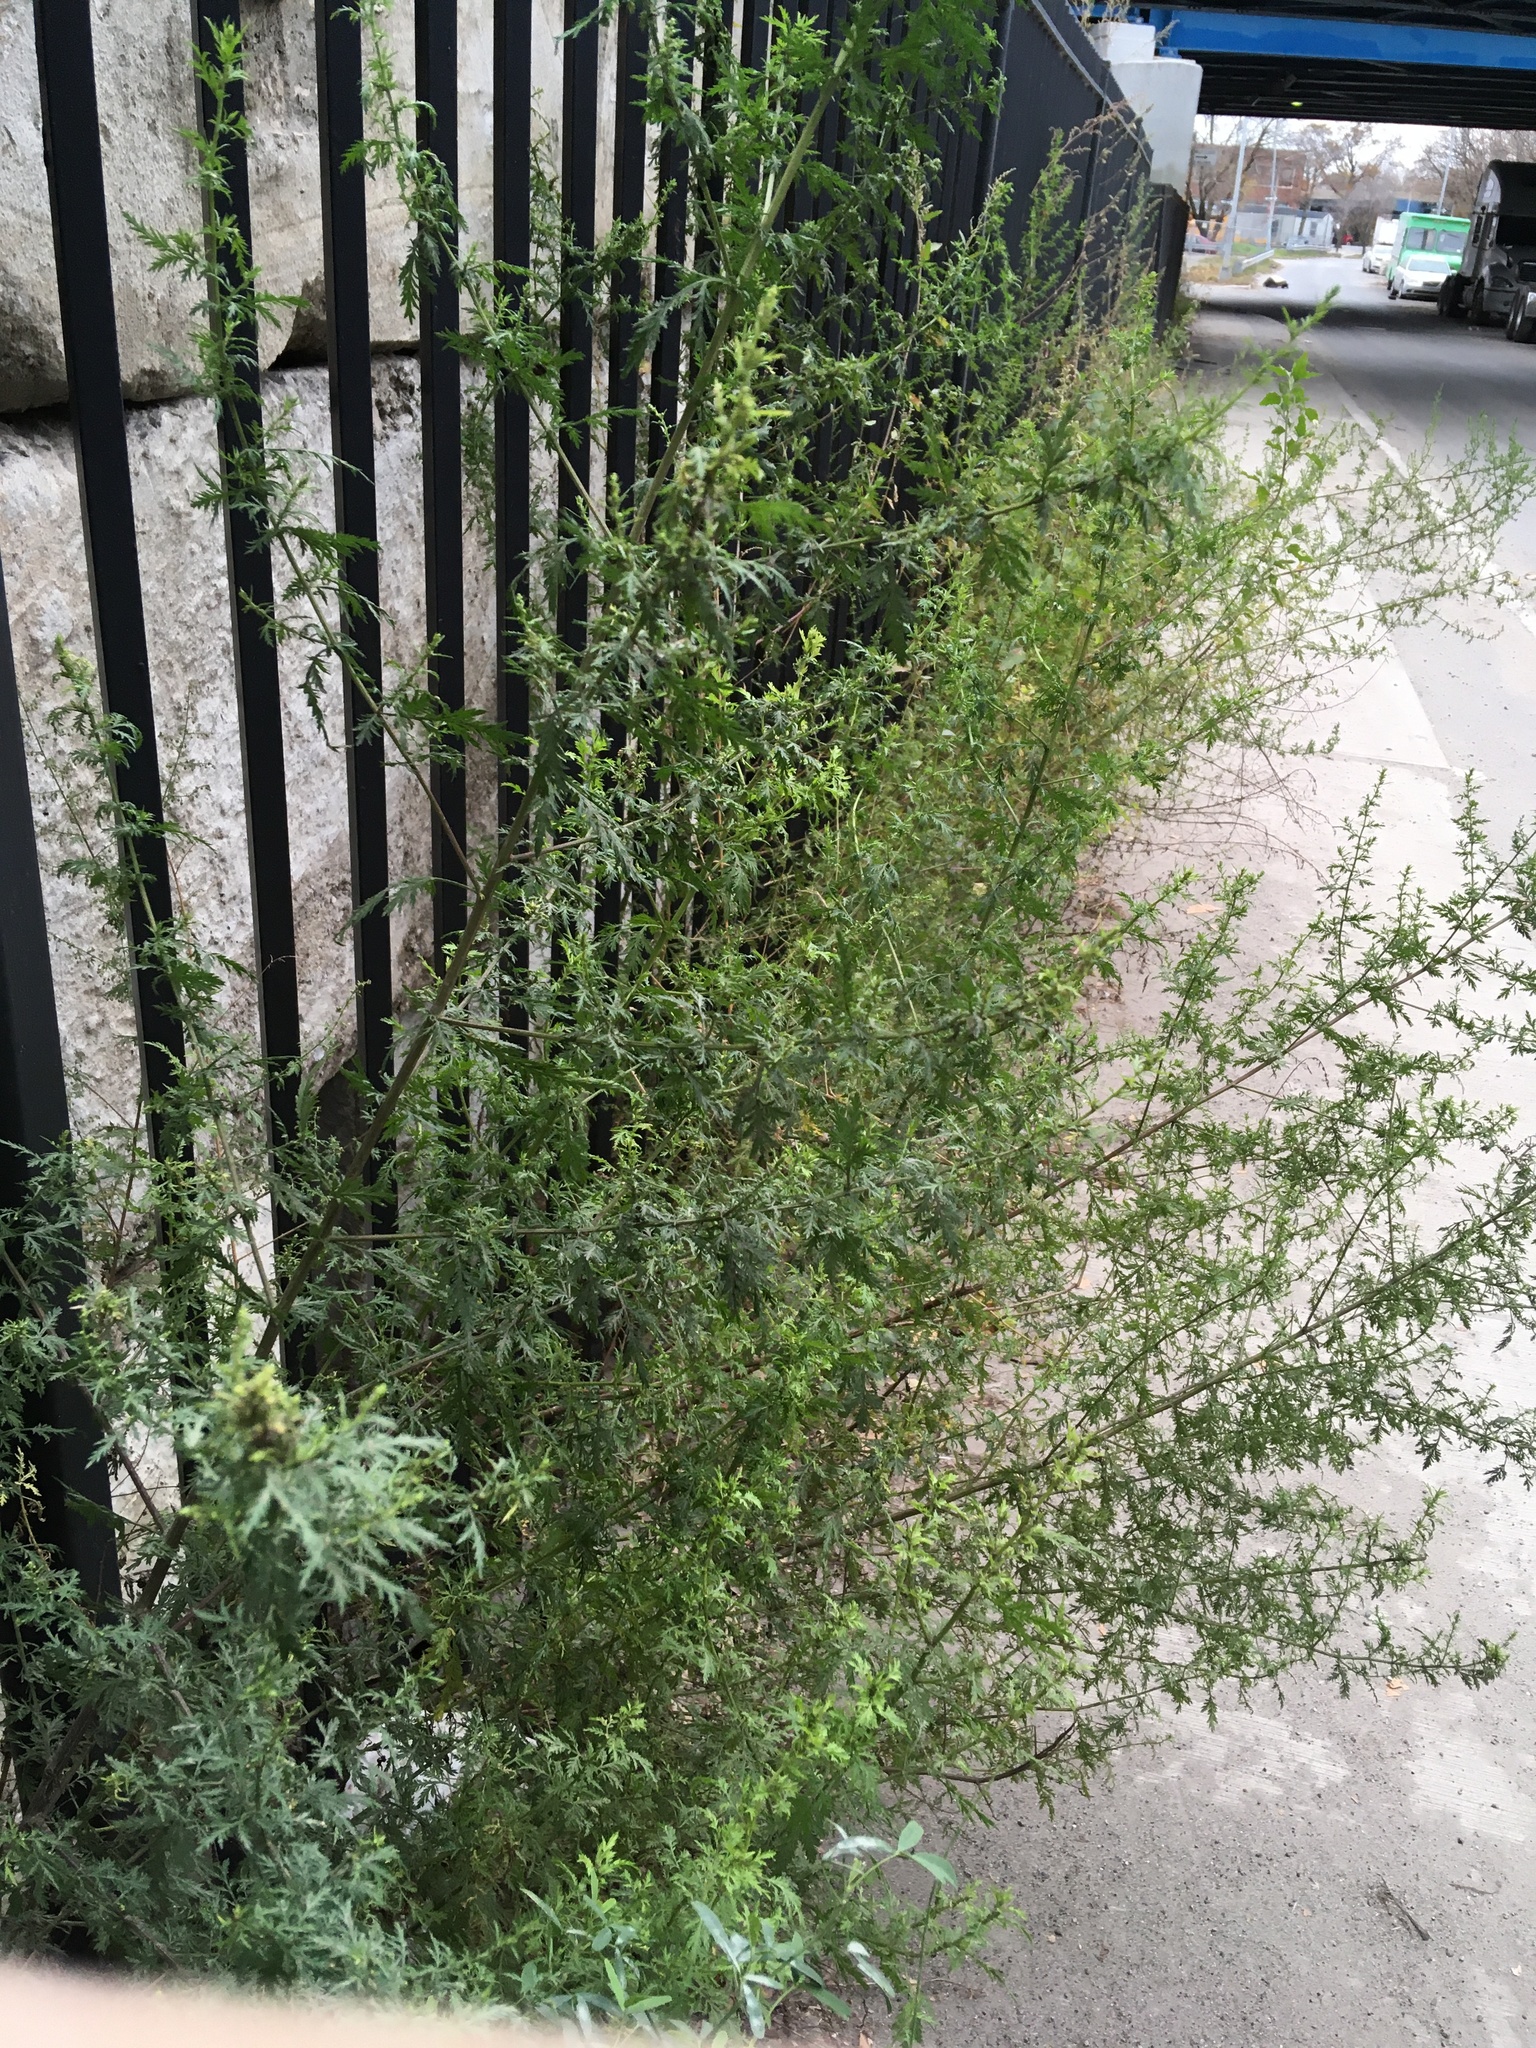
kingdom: Plantae
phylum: Tracheophyta
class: Magnoliopsida
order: Asterales
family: Asteraceae
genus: Artemisia
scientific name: Artemisia annua
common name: Sweet sagewort
